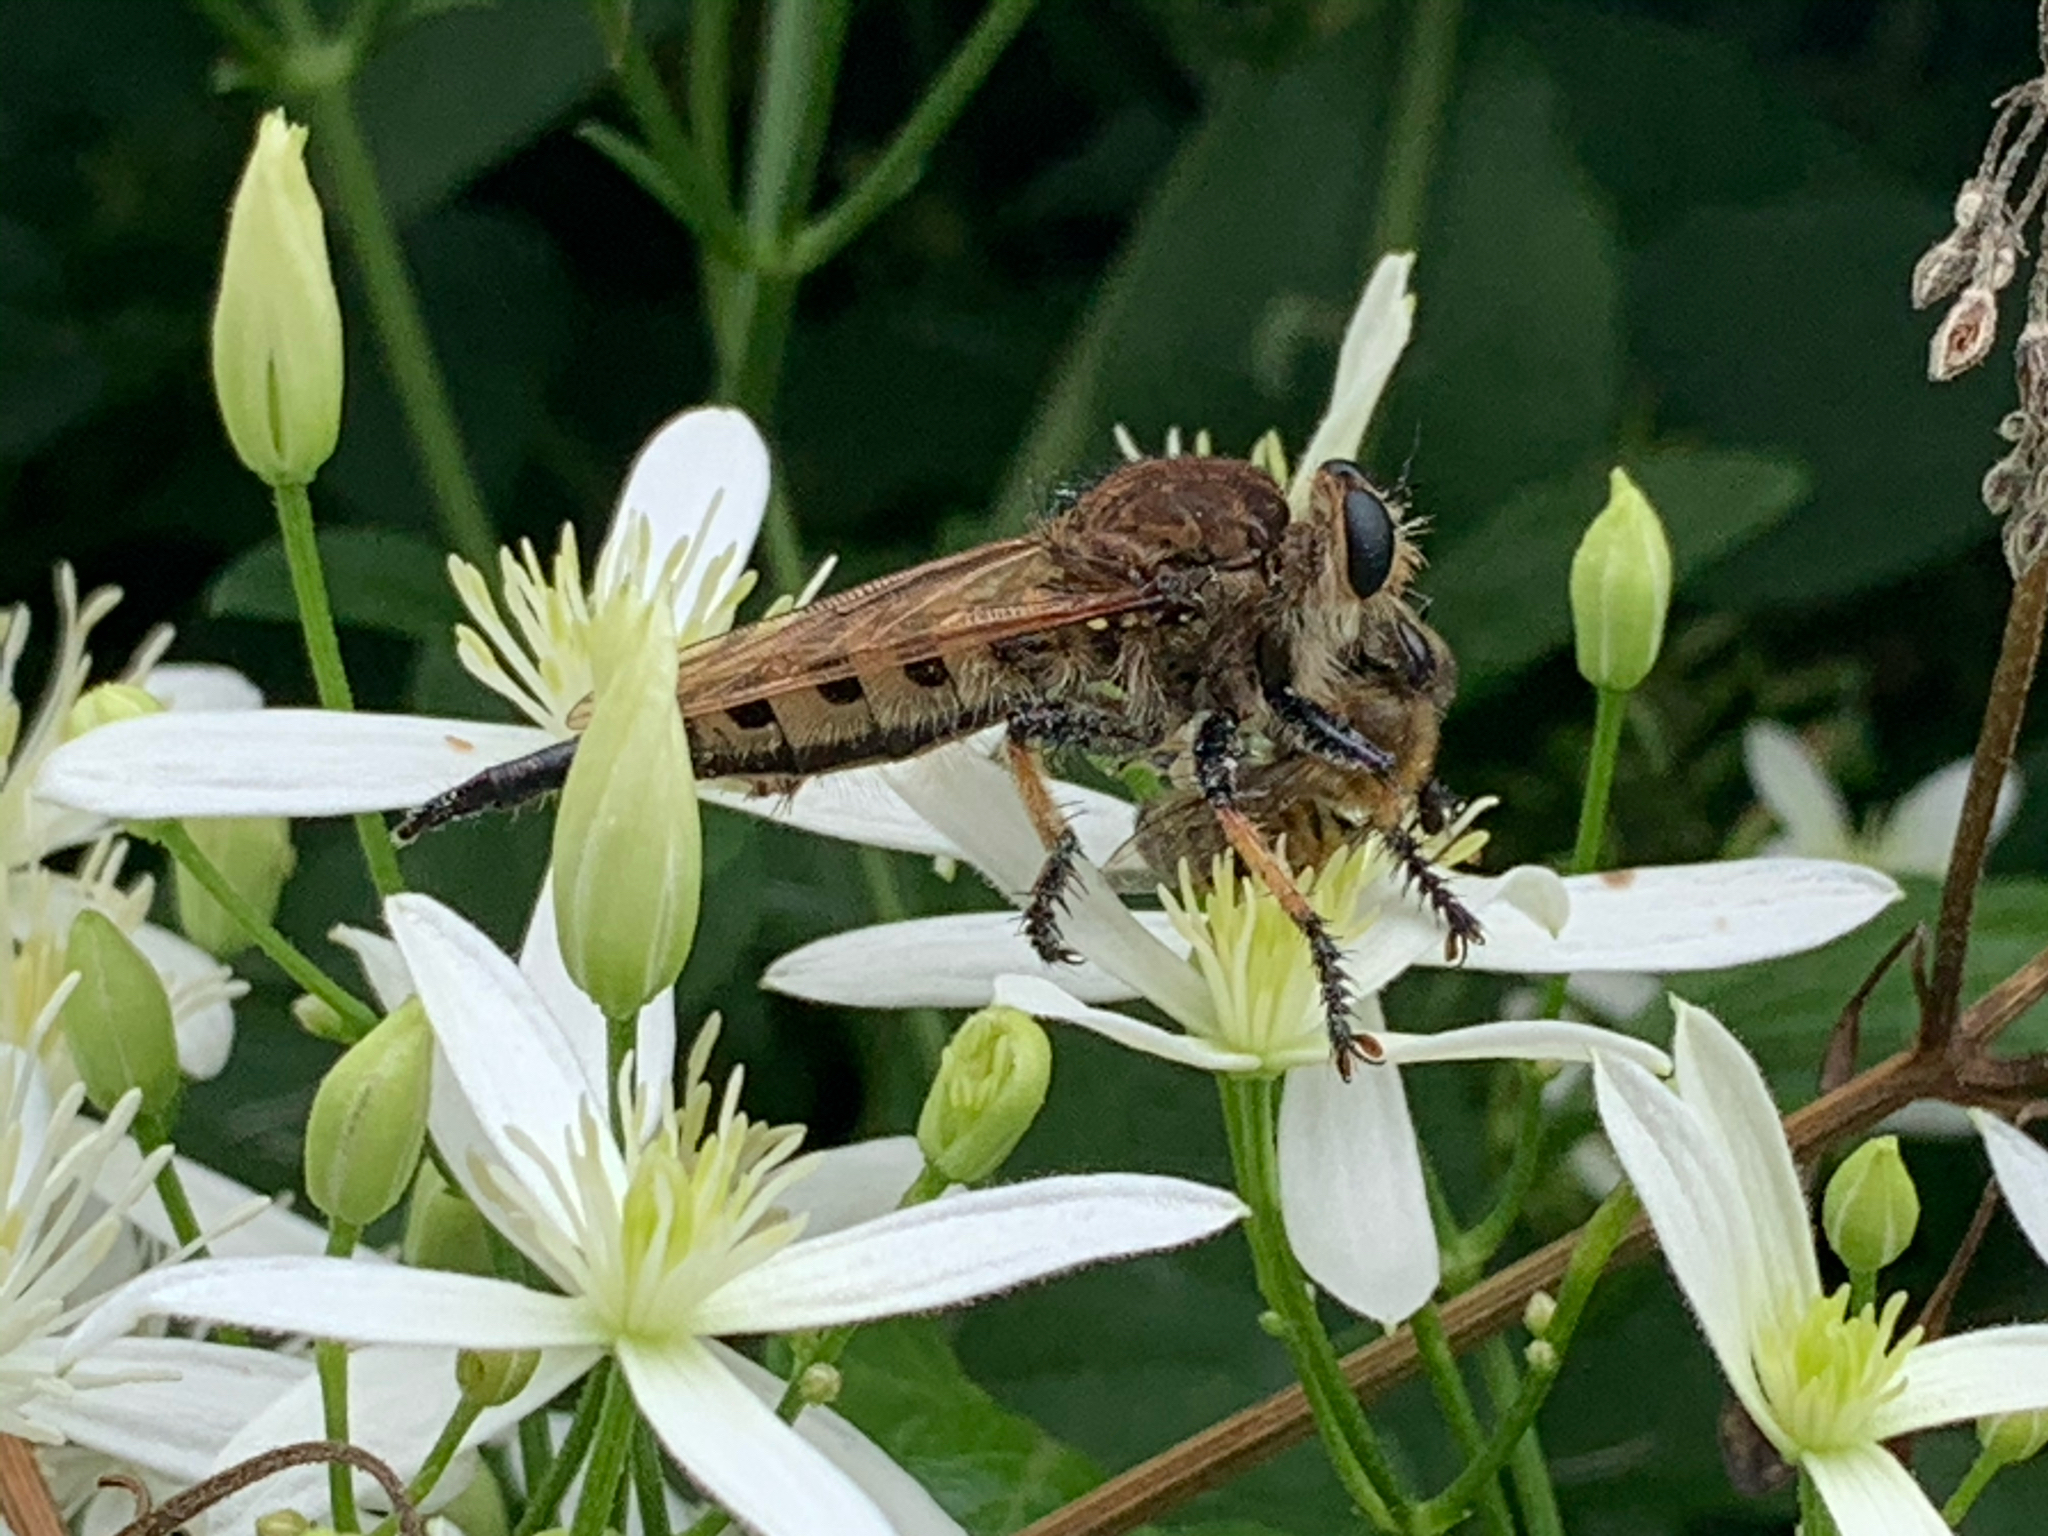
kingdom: Animalia
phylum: Arthropoda
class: Insecta
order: Diptera
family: Asilidae
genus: Promachus
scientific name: Promachus rufipes
